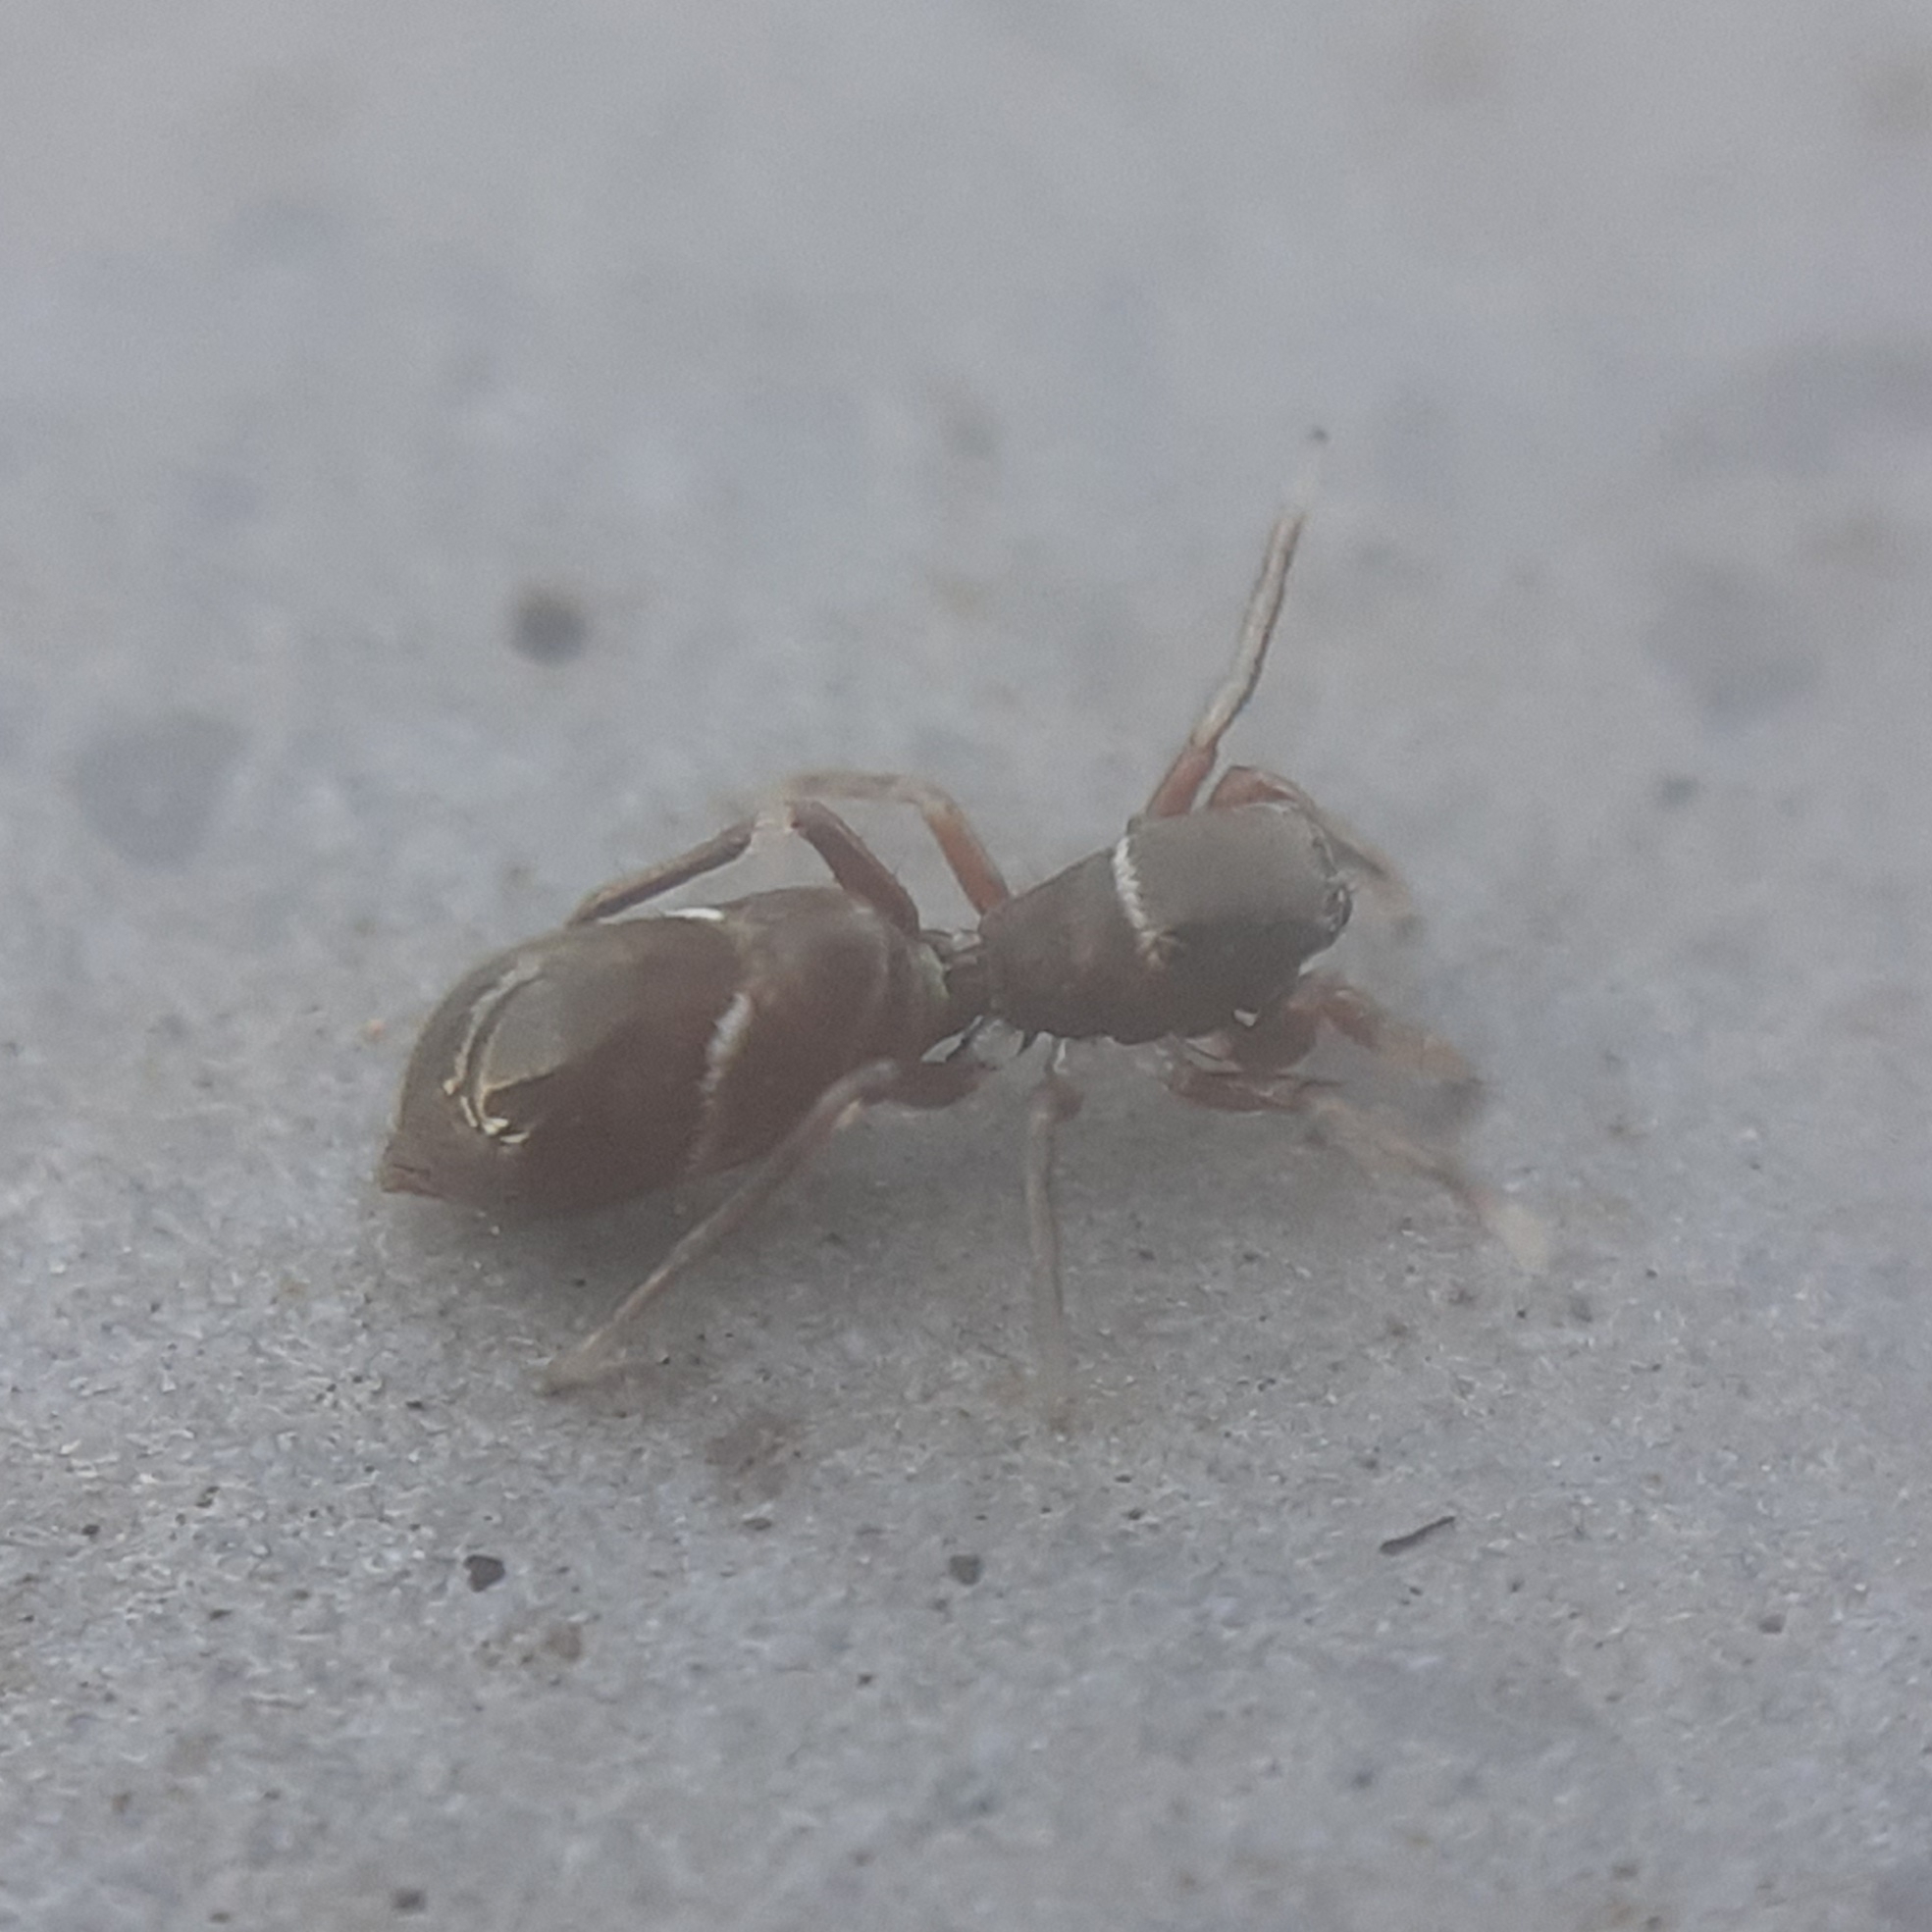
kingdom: Animalia
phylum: Arthropoda
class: Arachnida
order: Araneae
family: Salticidae
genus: Synageles
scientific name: Synageles venator
